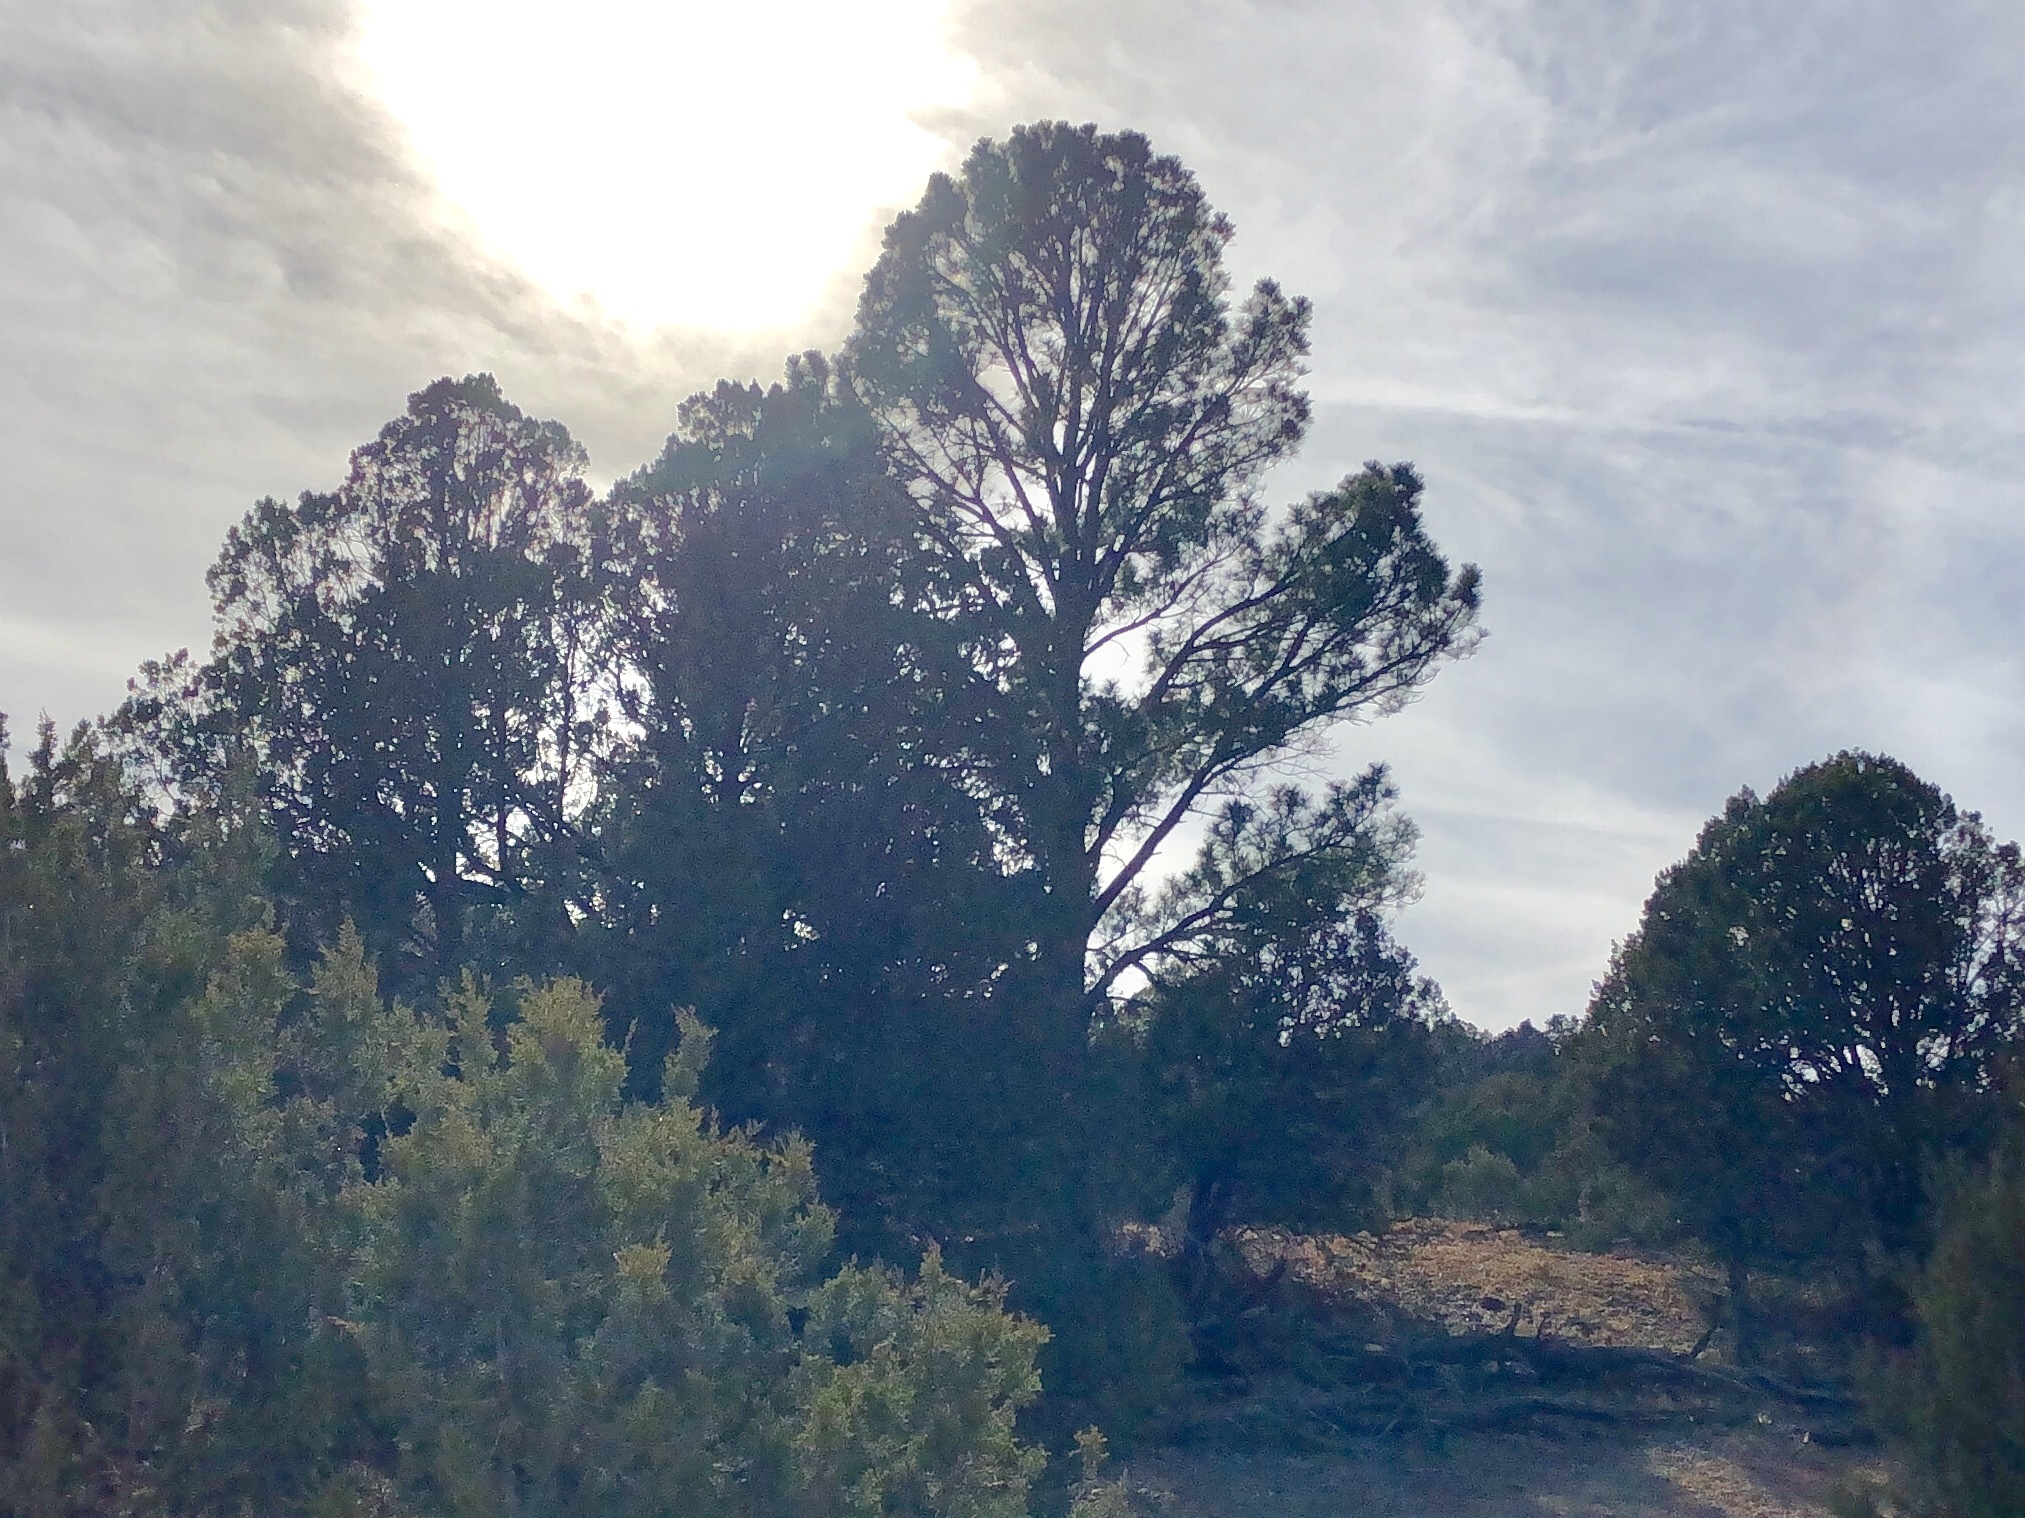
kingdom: Plantae
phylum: Tracheophyta
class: Pinopsida
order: Pinales
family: Pinaceae
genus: Pinus
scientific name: Pinus ponderosa
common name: Western yellow-pine
